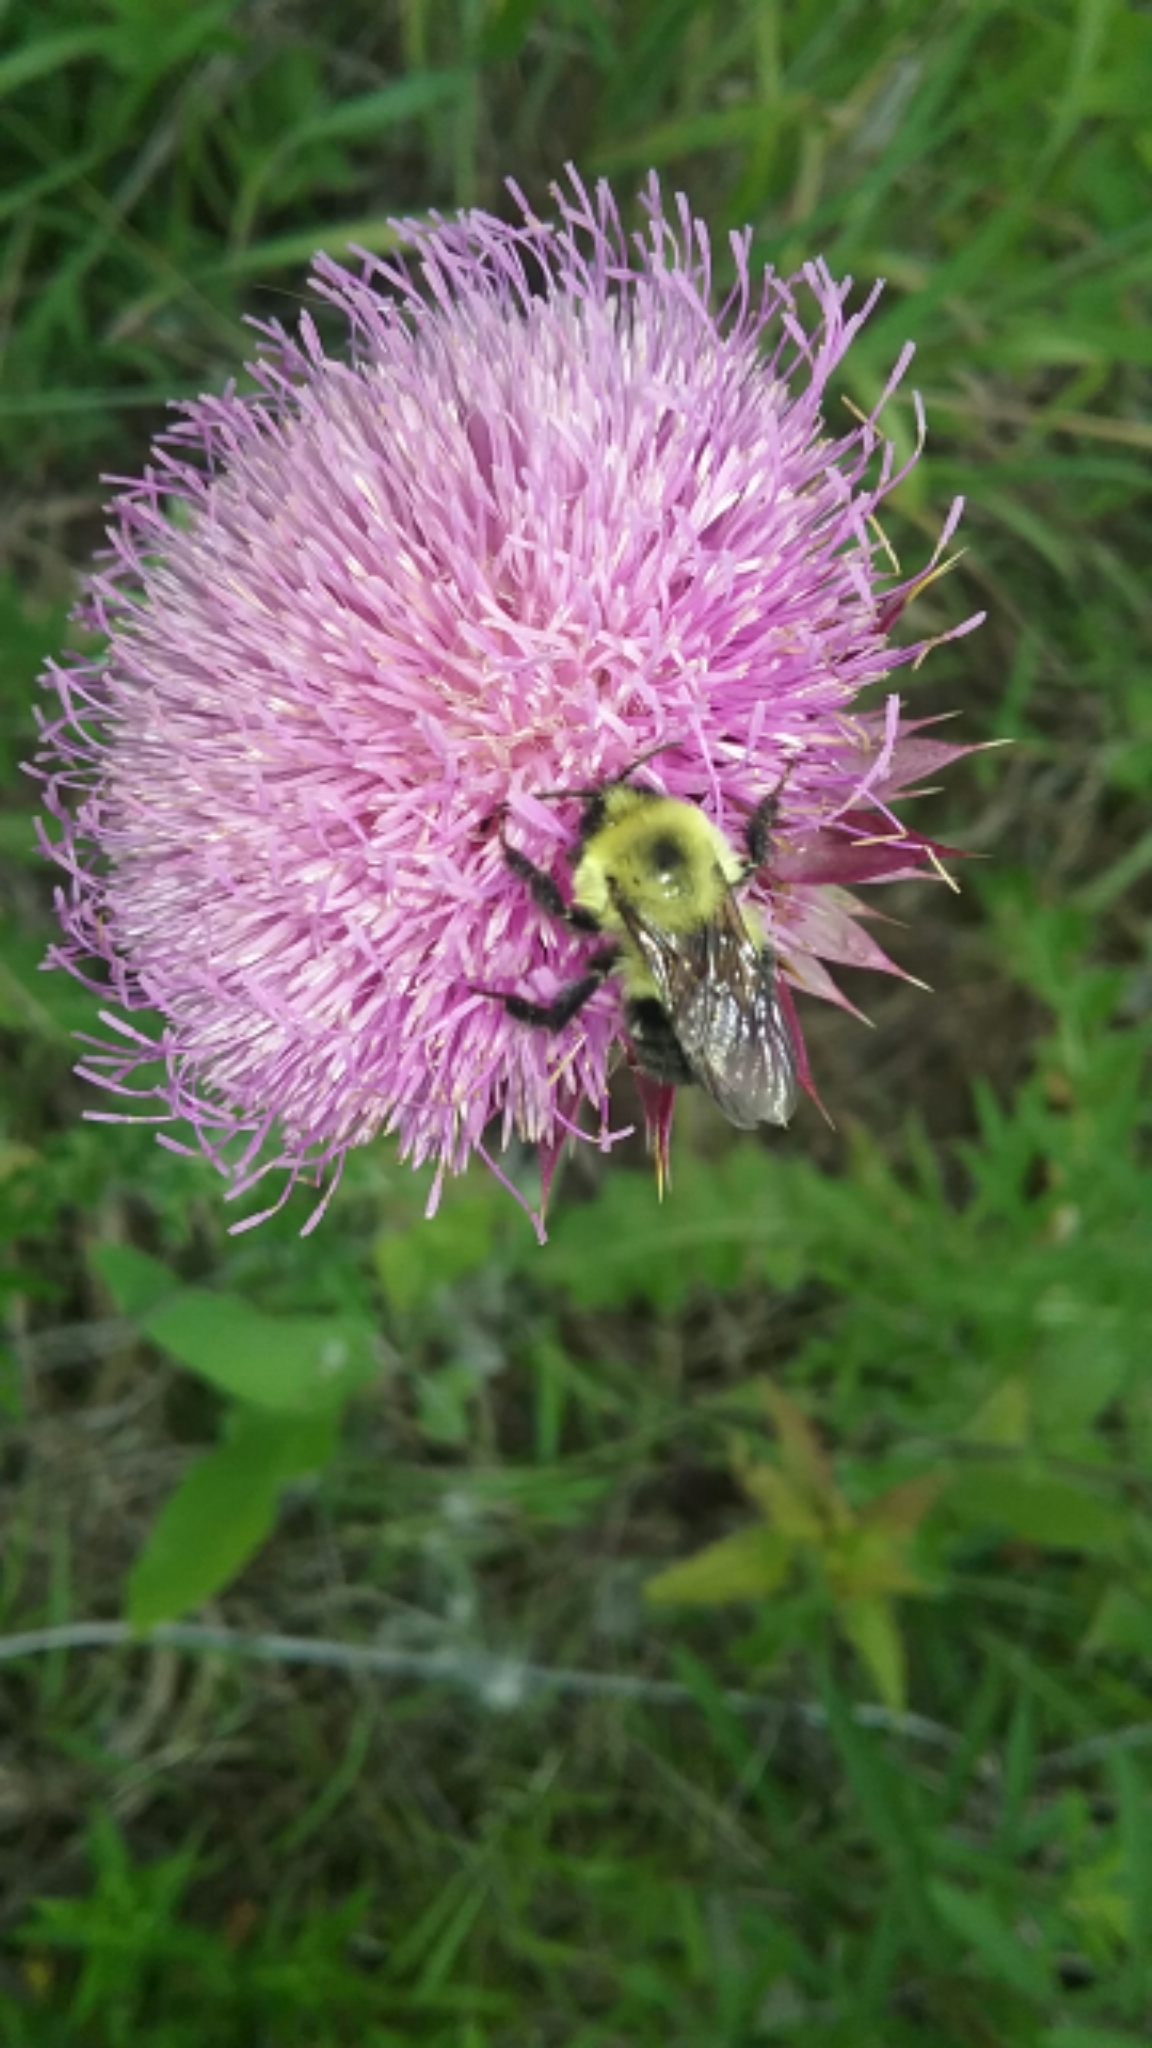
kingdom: Animalia
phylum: Arthropoda
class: Insecta
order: Hymenoptera
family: Apidae
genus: Bombus
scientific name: Bombus bimaculatus
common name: Two-spotted bumble bee
